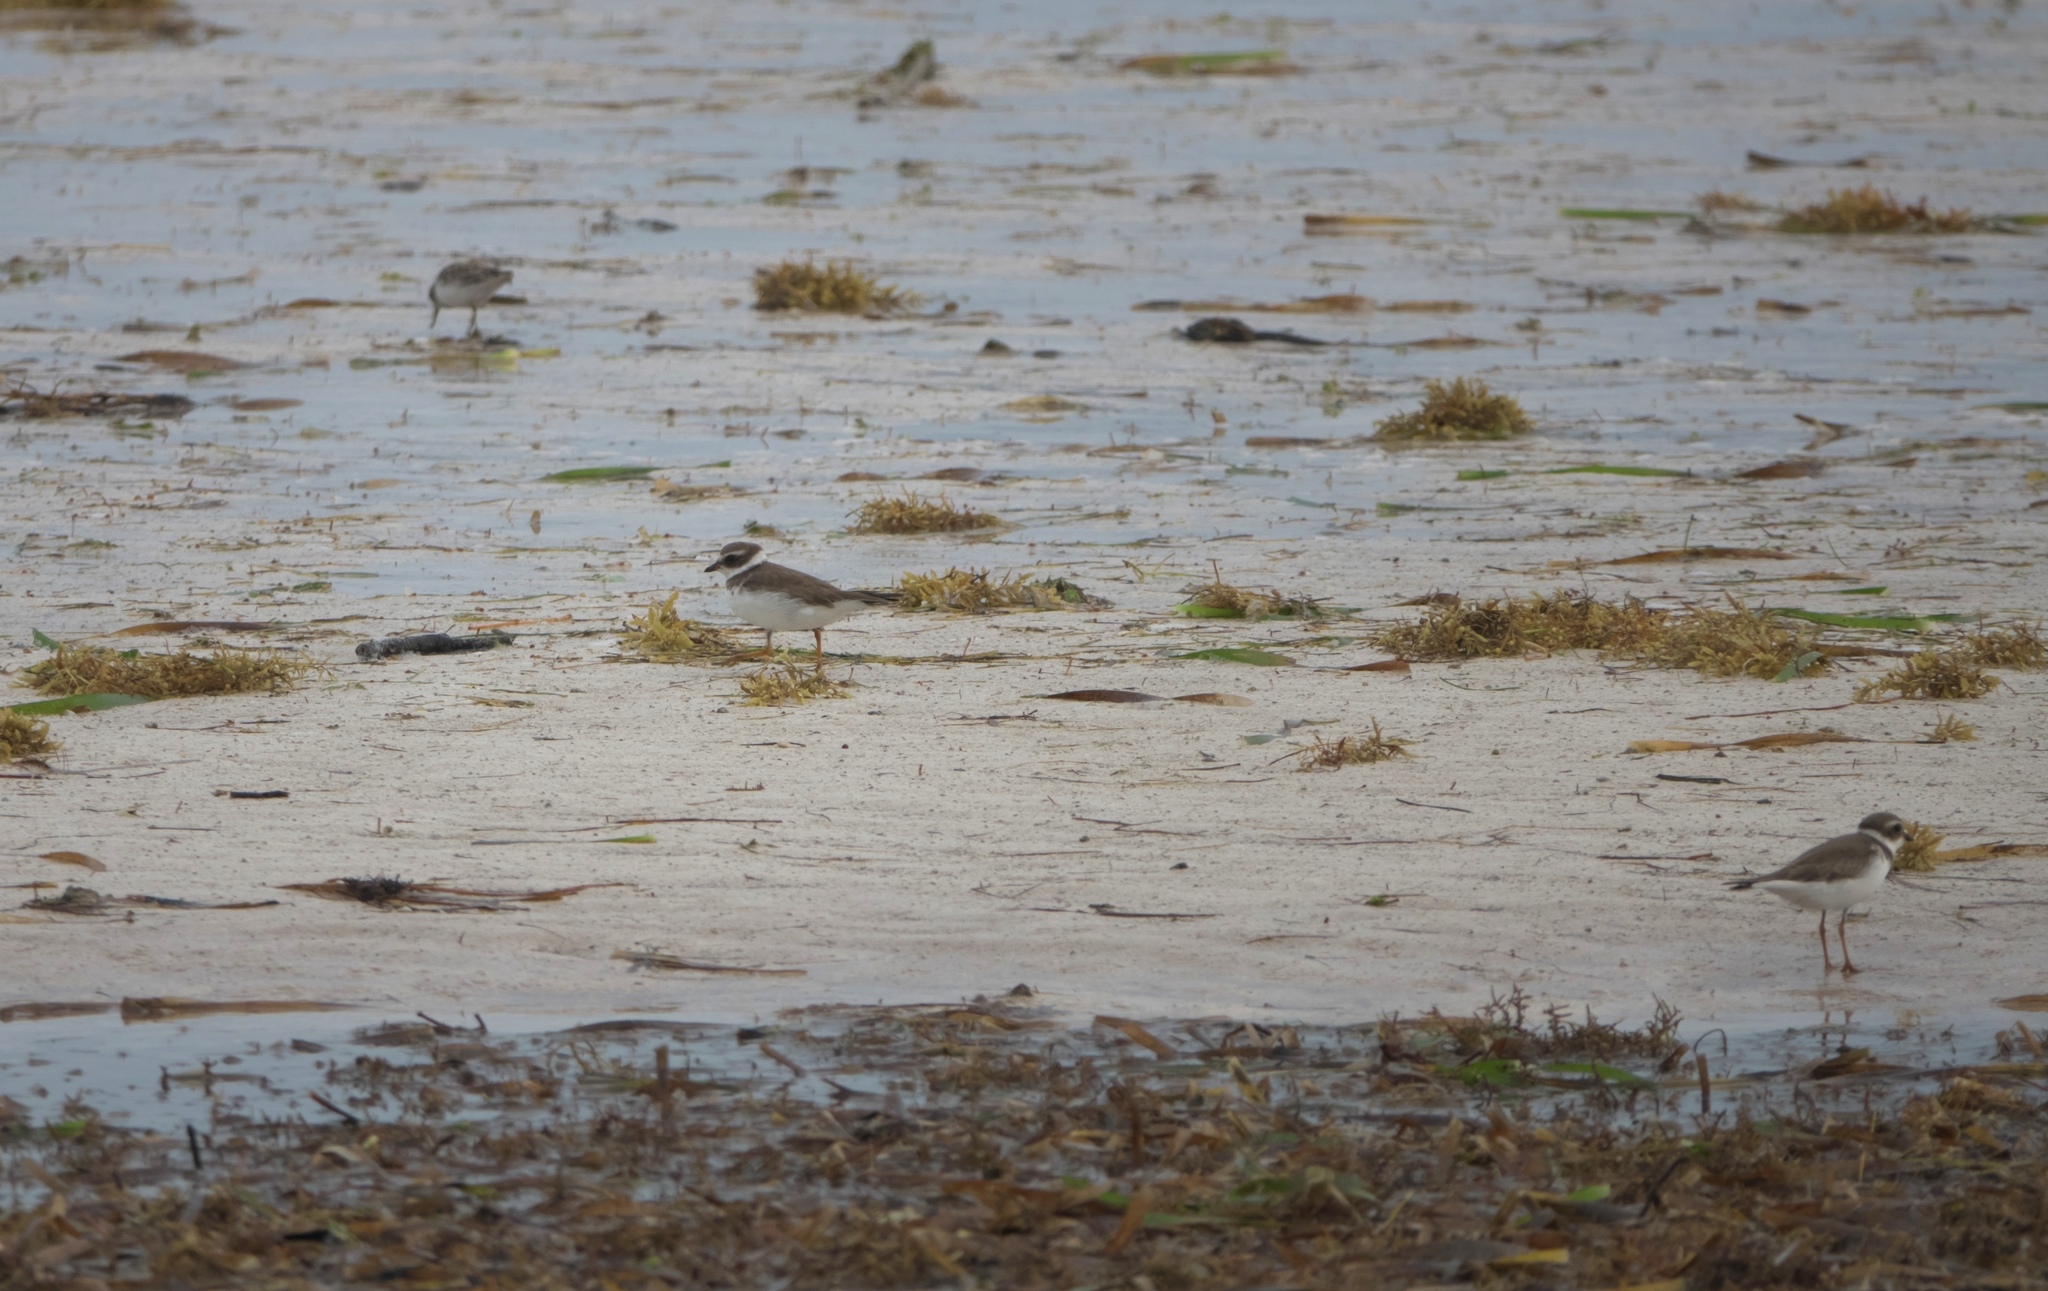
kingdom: Animalia
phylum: Chordata
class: Aves
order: Charadriiformes
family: Charadriidae
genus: Charadrius
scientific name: Charadrius semipalmatus
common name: Semipalmated plover
